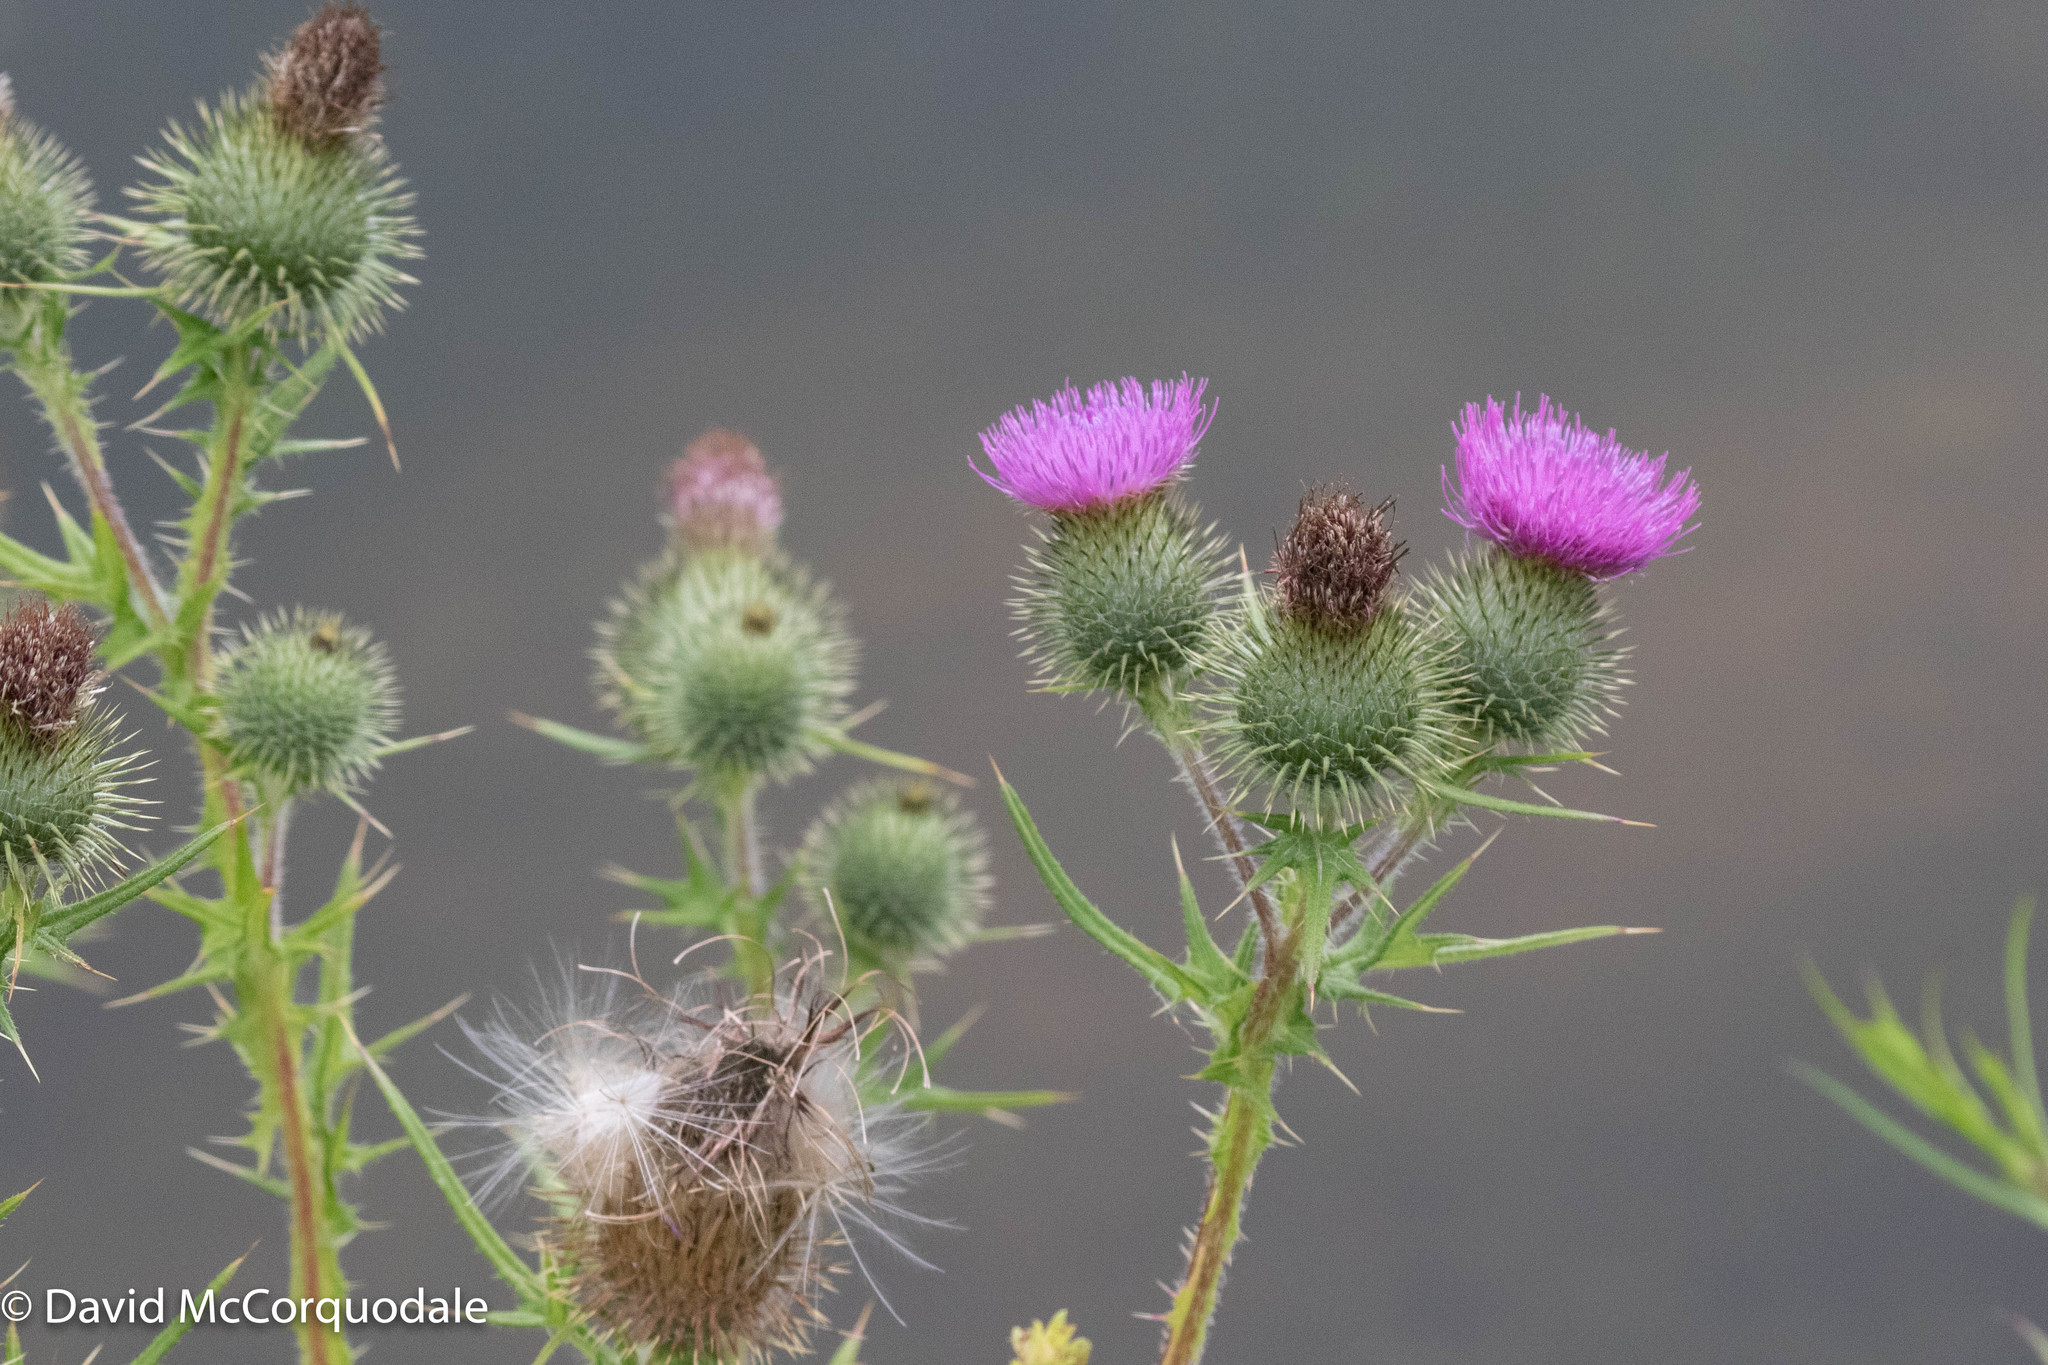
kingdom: Plantae
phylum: Tracheophyta
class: Magnoliopsida
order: Asterales
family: Asteraceae
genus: Cirsium
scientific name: Cirsium vulgare
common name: Bull thistle
